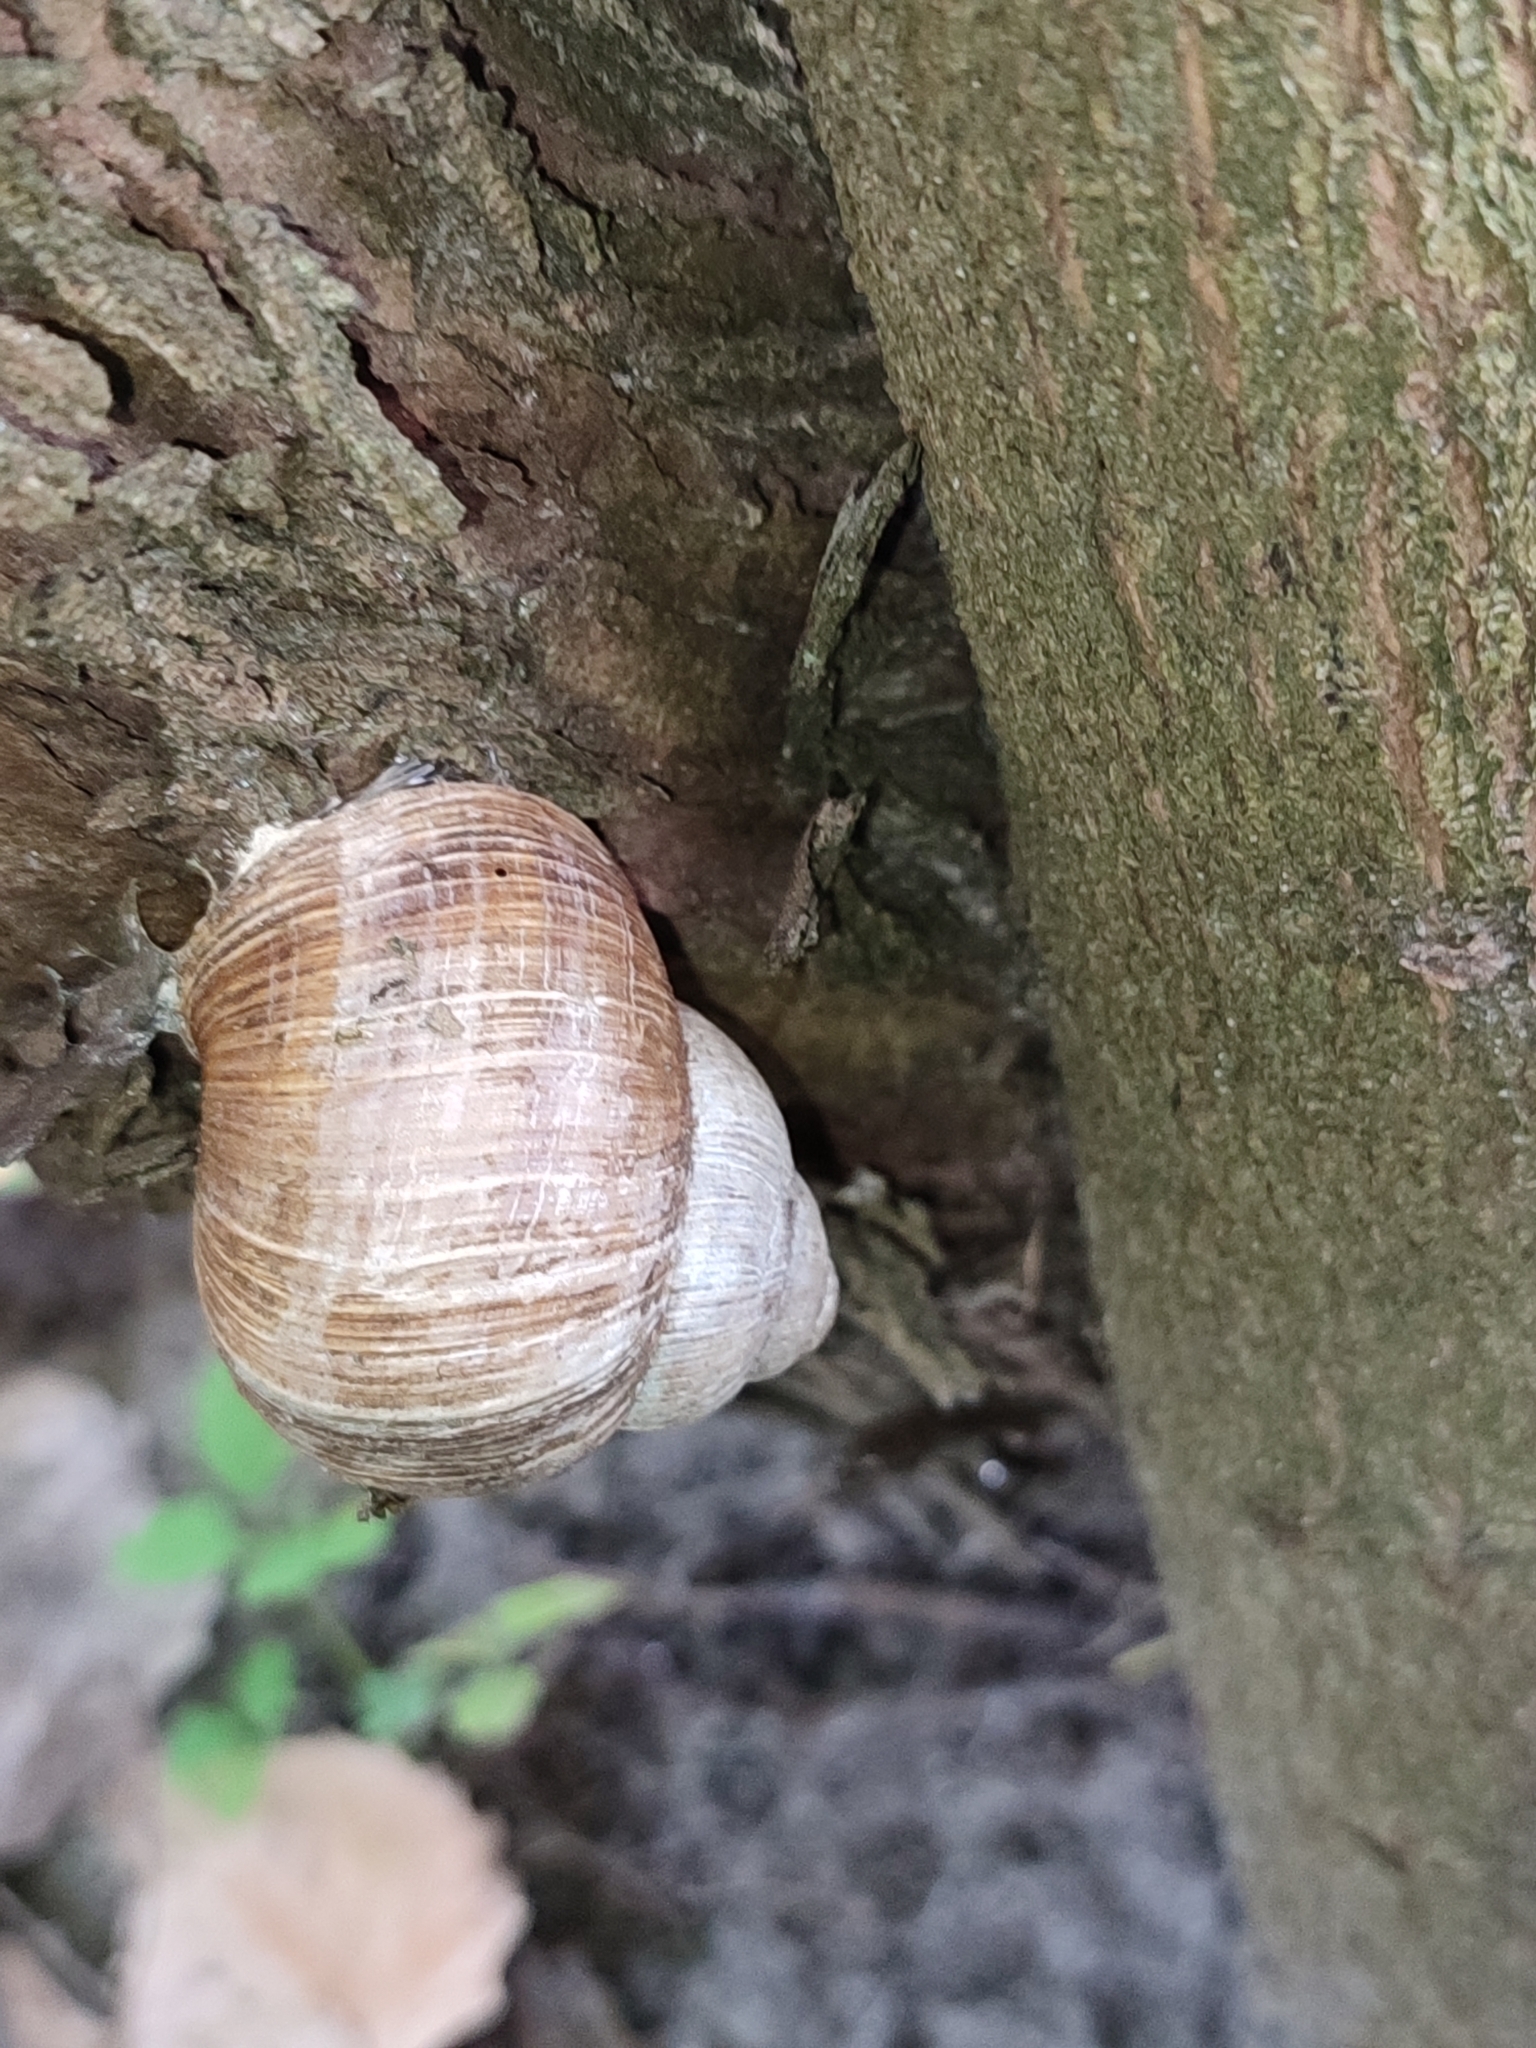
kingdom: Animalia
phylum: Mollusca
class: Gastropoda
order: Stylommatophora
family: Helicidae
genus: Helix
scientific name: Helix pomatia
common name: Roman snail
